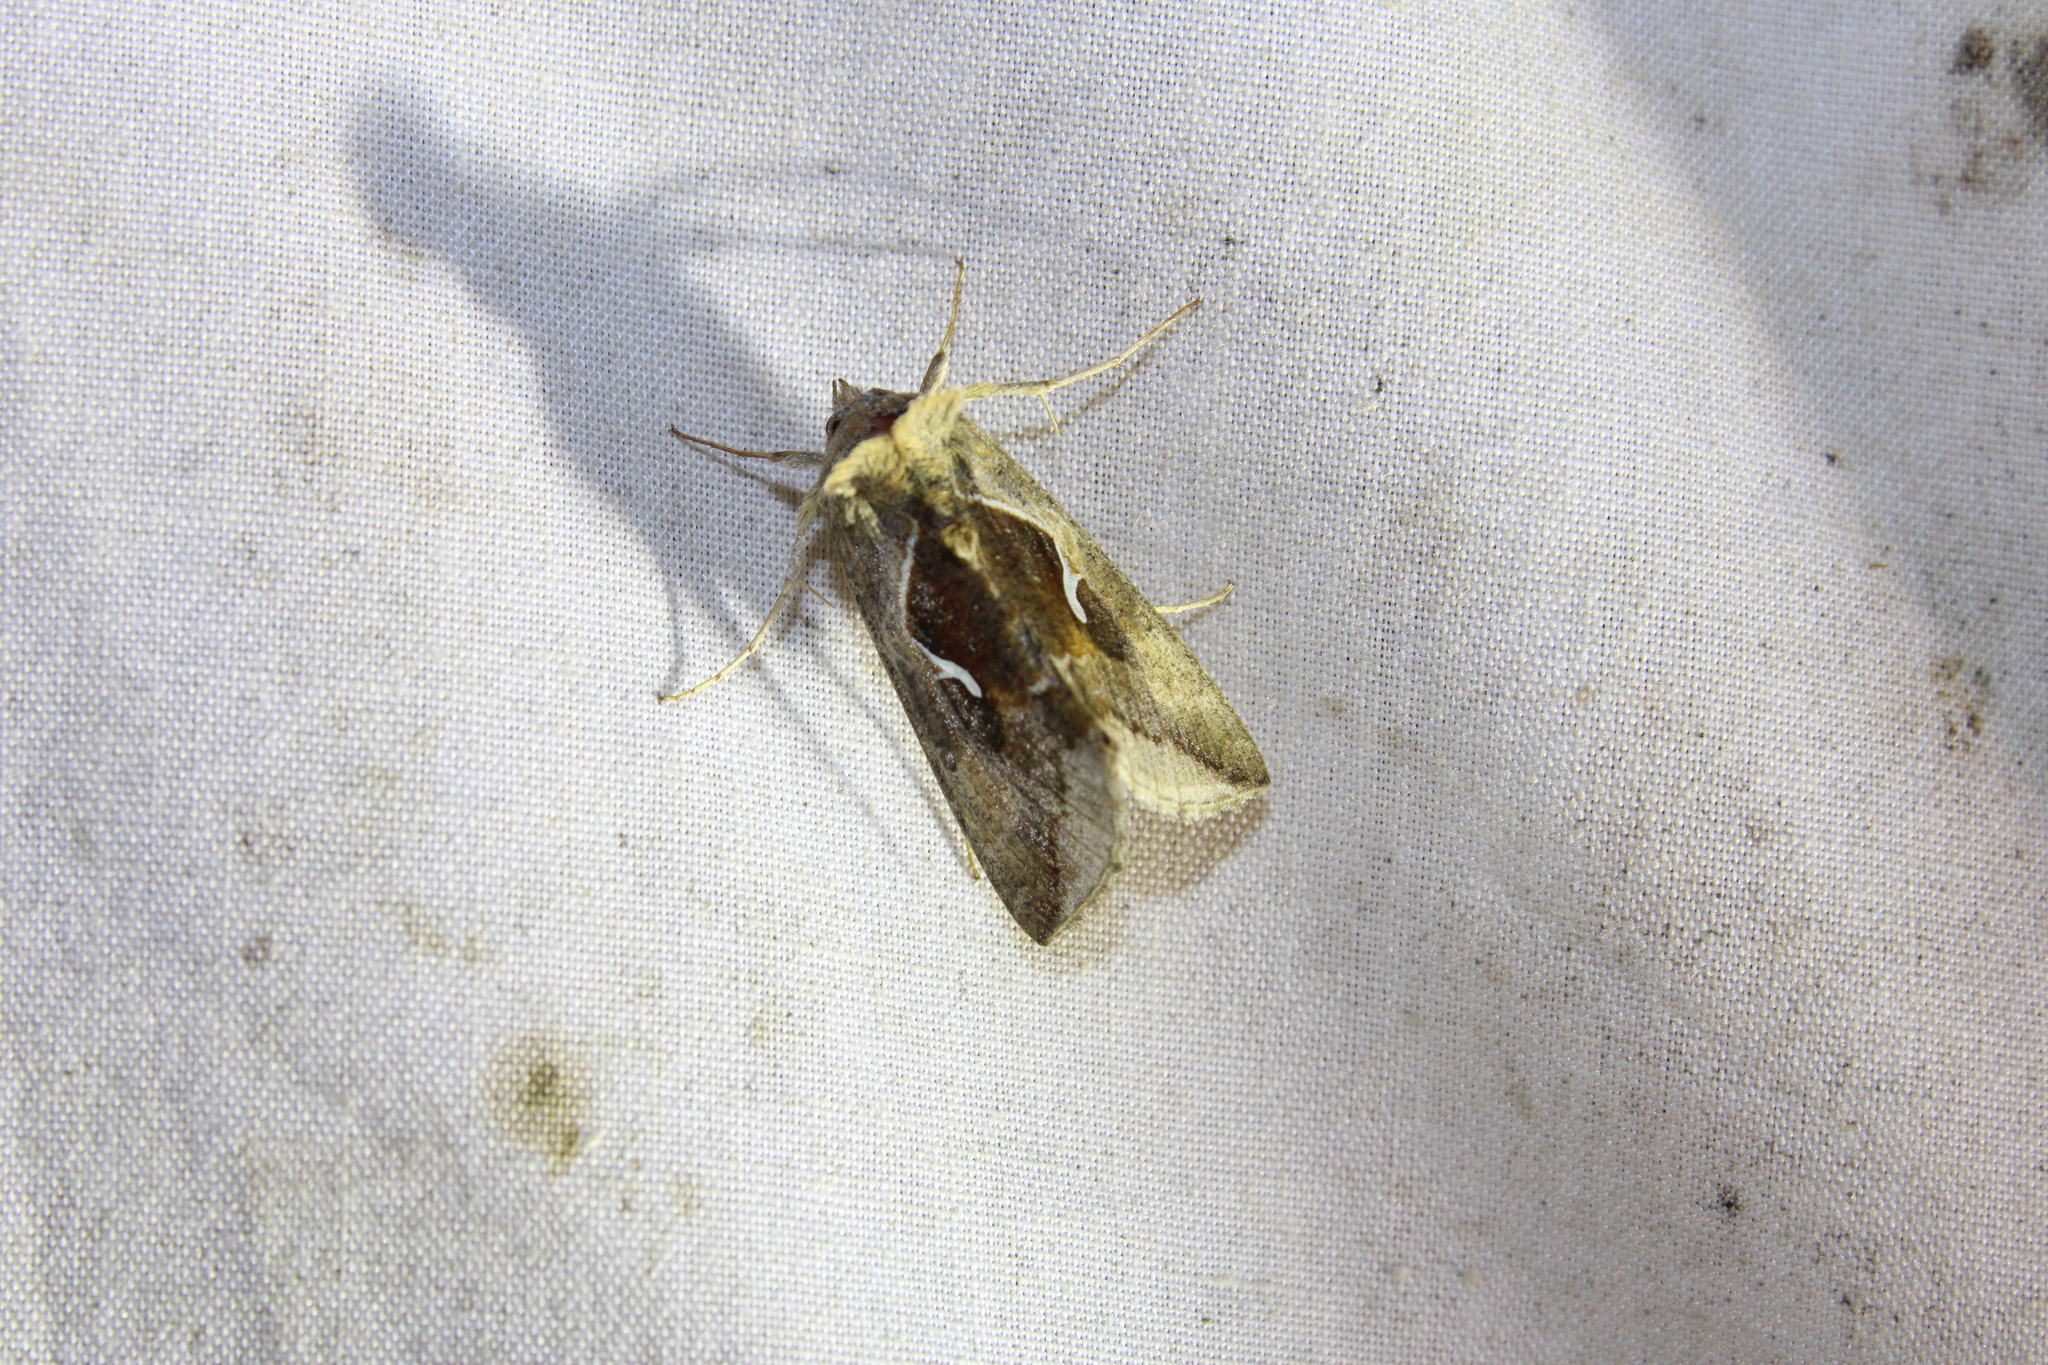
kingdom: Animalia
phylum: Arthropoda
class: Insecta
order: Lepidoptera
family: Noctuidae
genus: Anagrapha
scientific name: Anagrapha falcifera
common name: Celery looper
